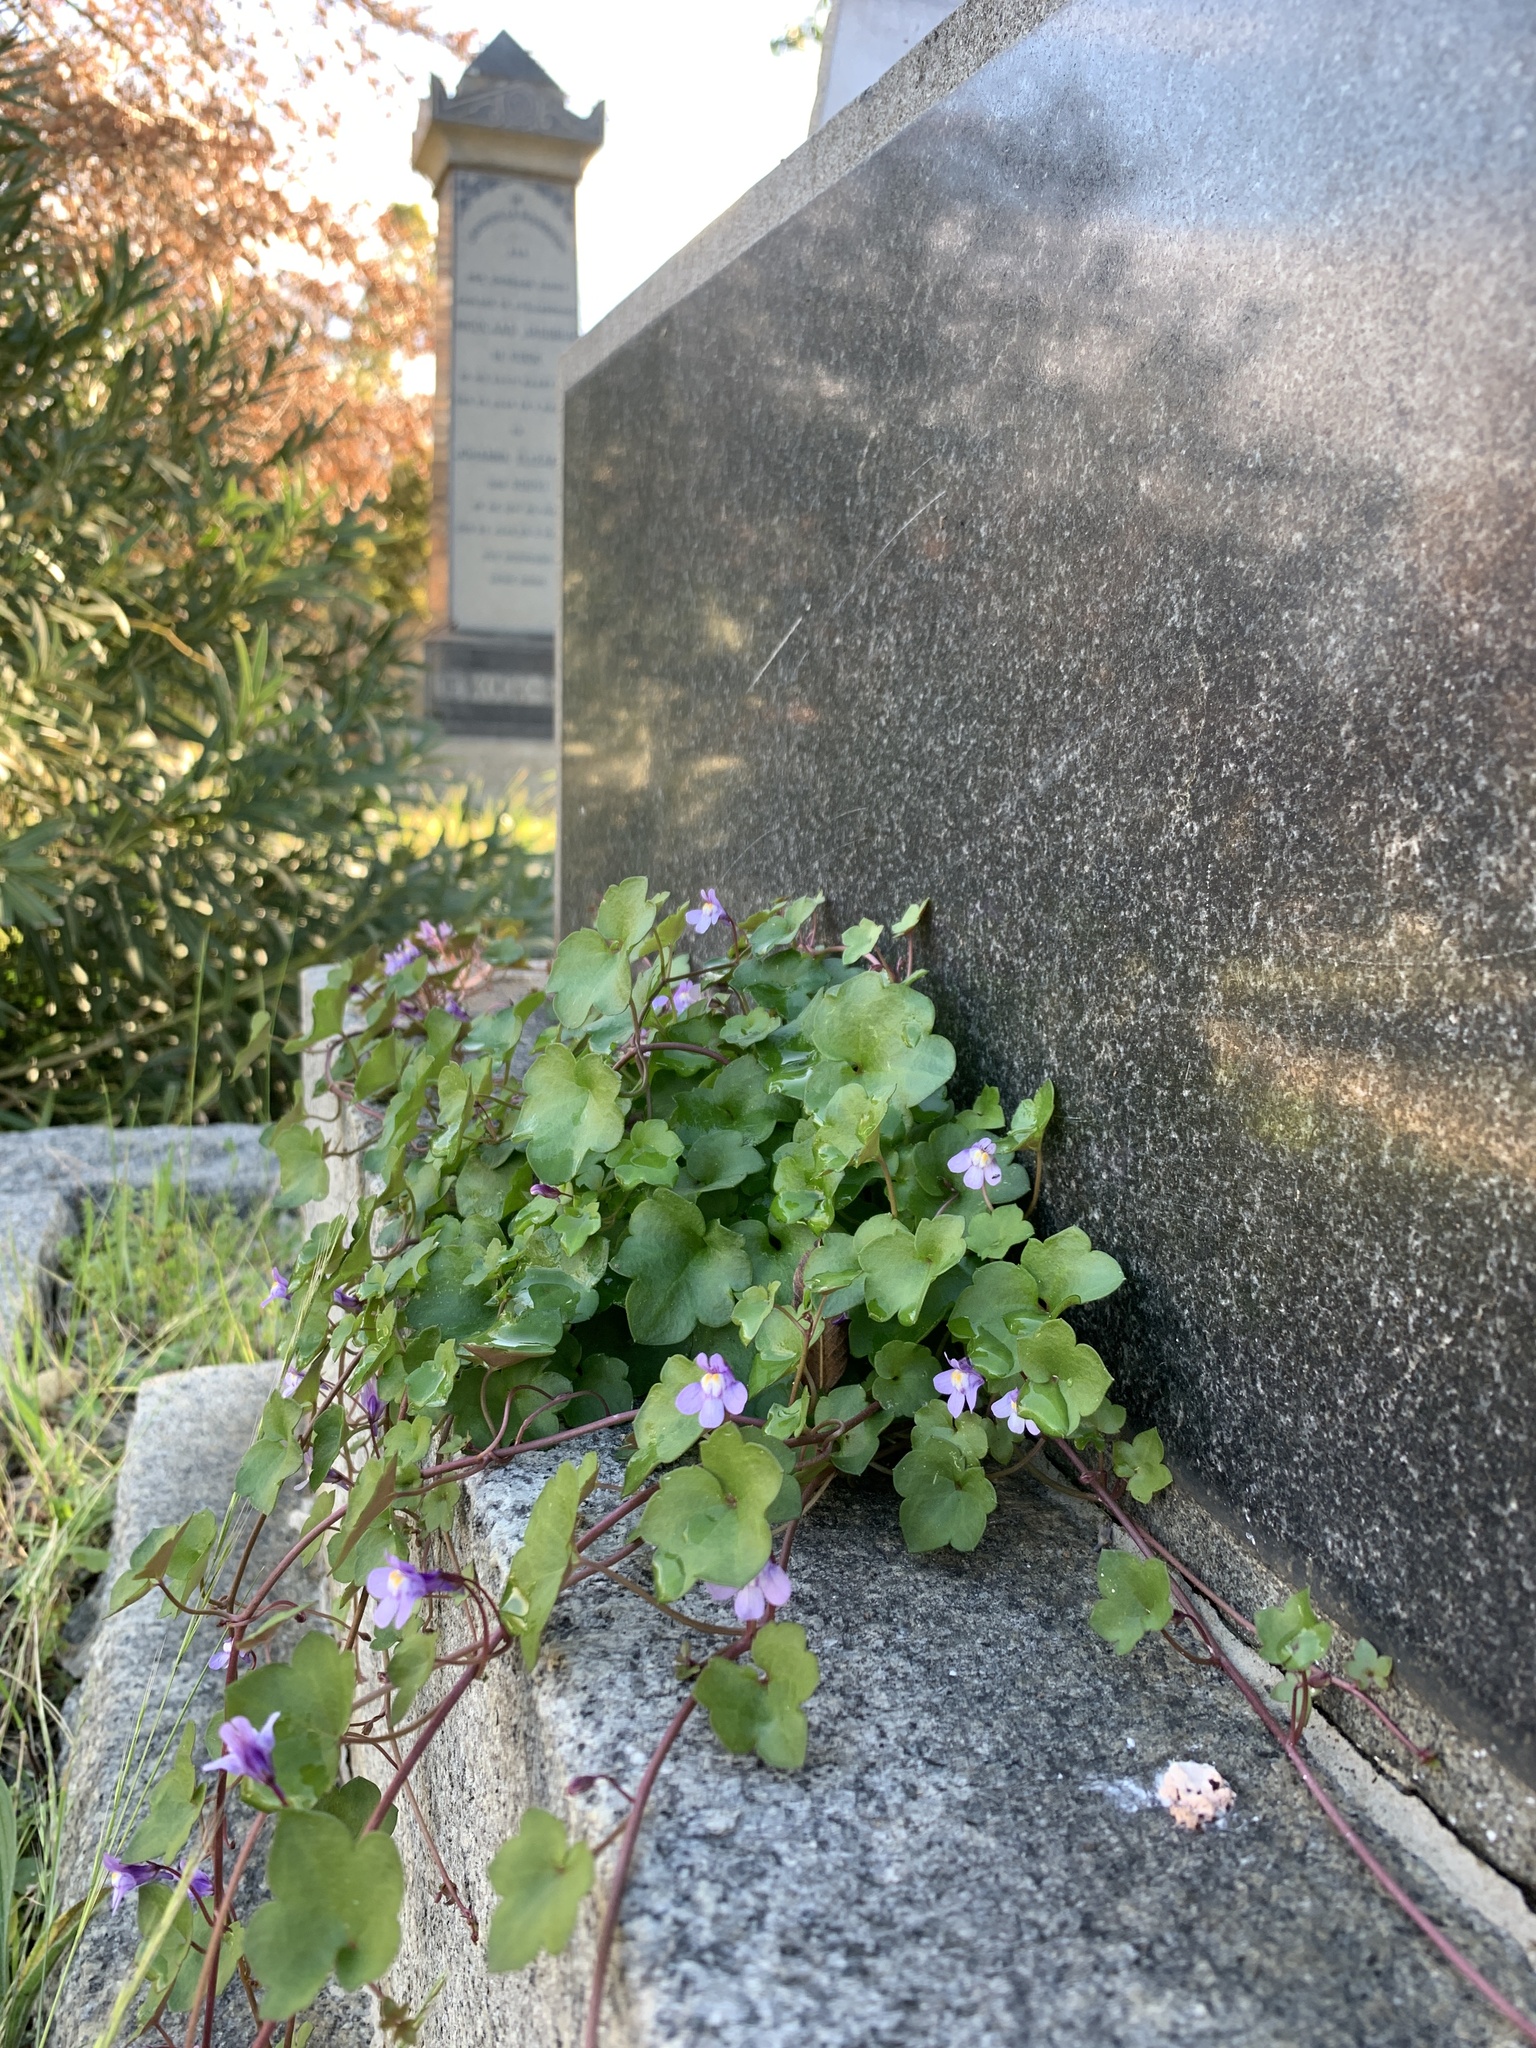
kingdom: Plantae
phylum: Tracheophyta
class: Magnoliopsida
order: Lamiales
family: Plantaginaceae
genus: Cymbalaria
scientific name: Cymbalaria muralis
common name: Ivy-leaved toadflax
